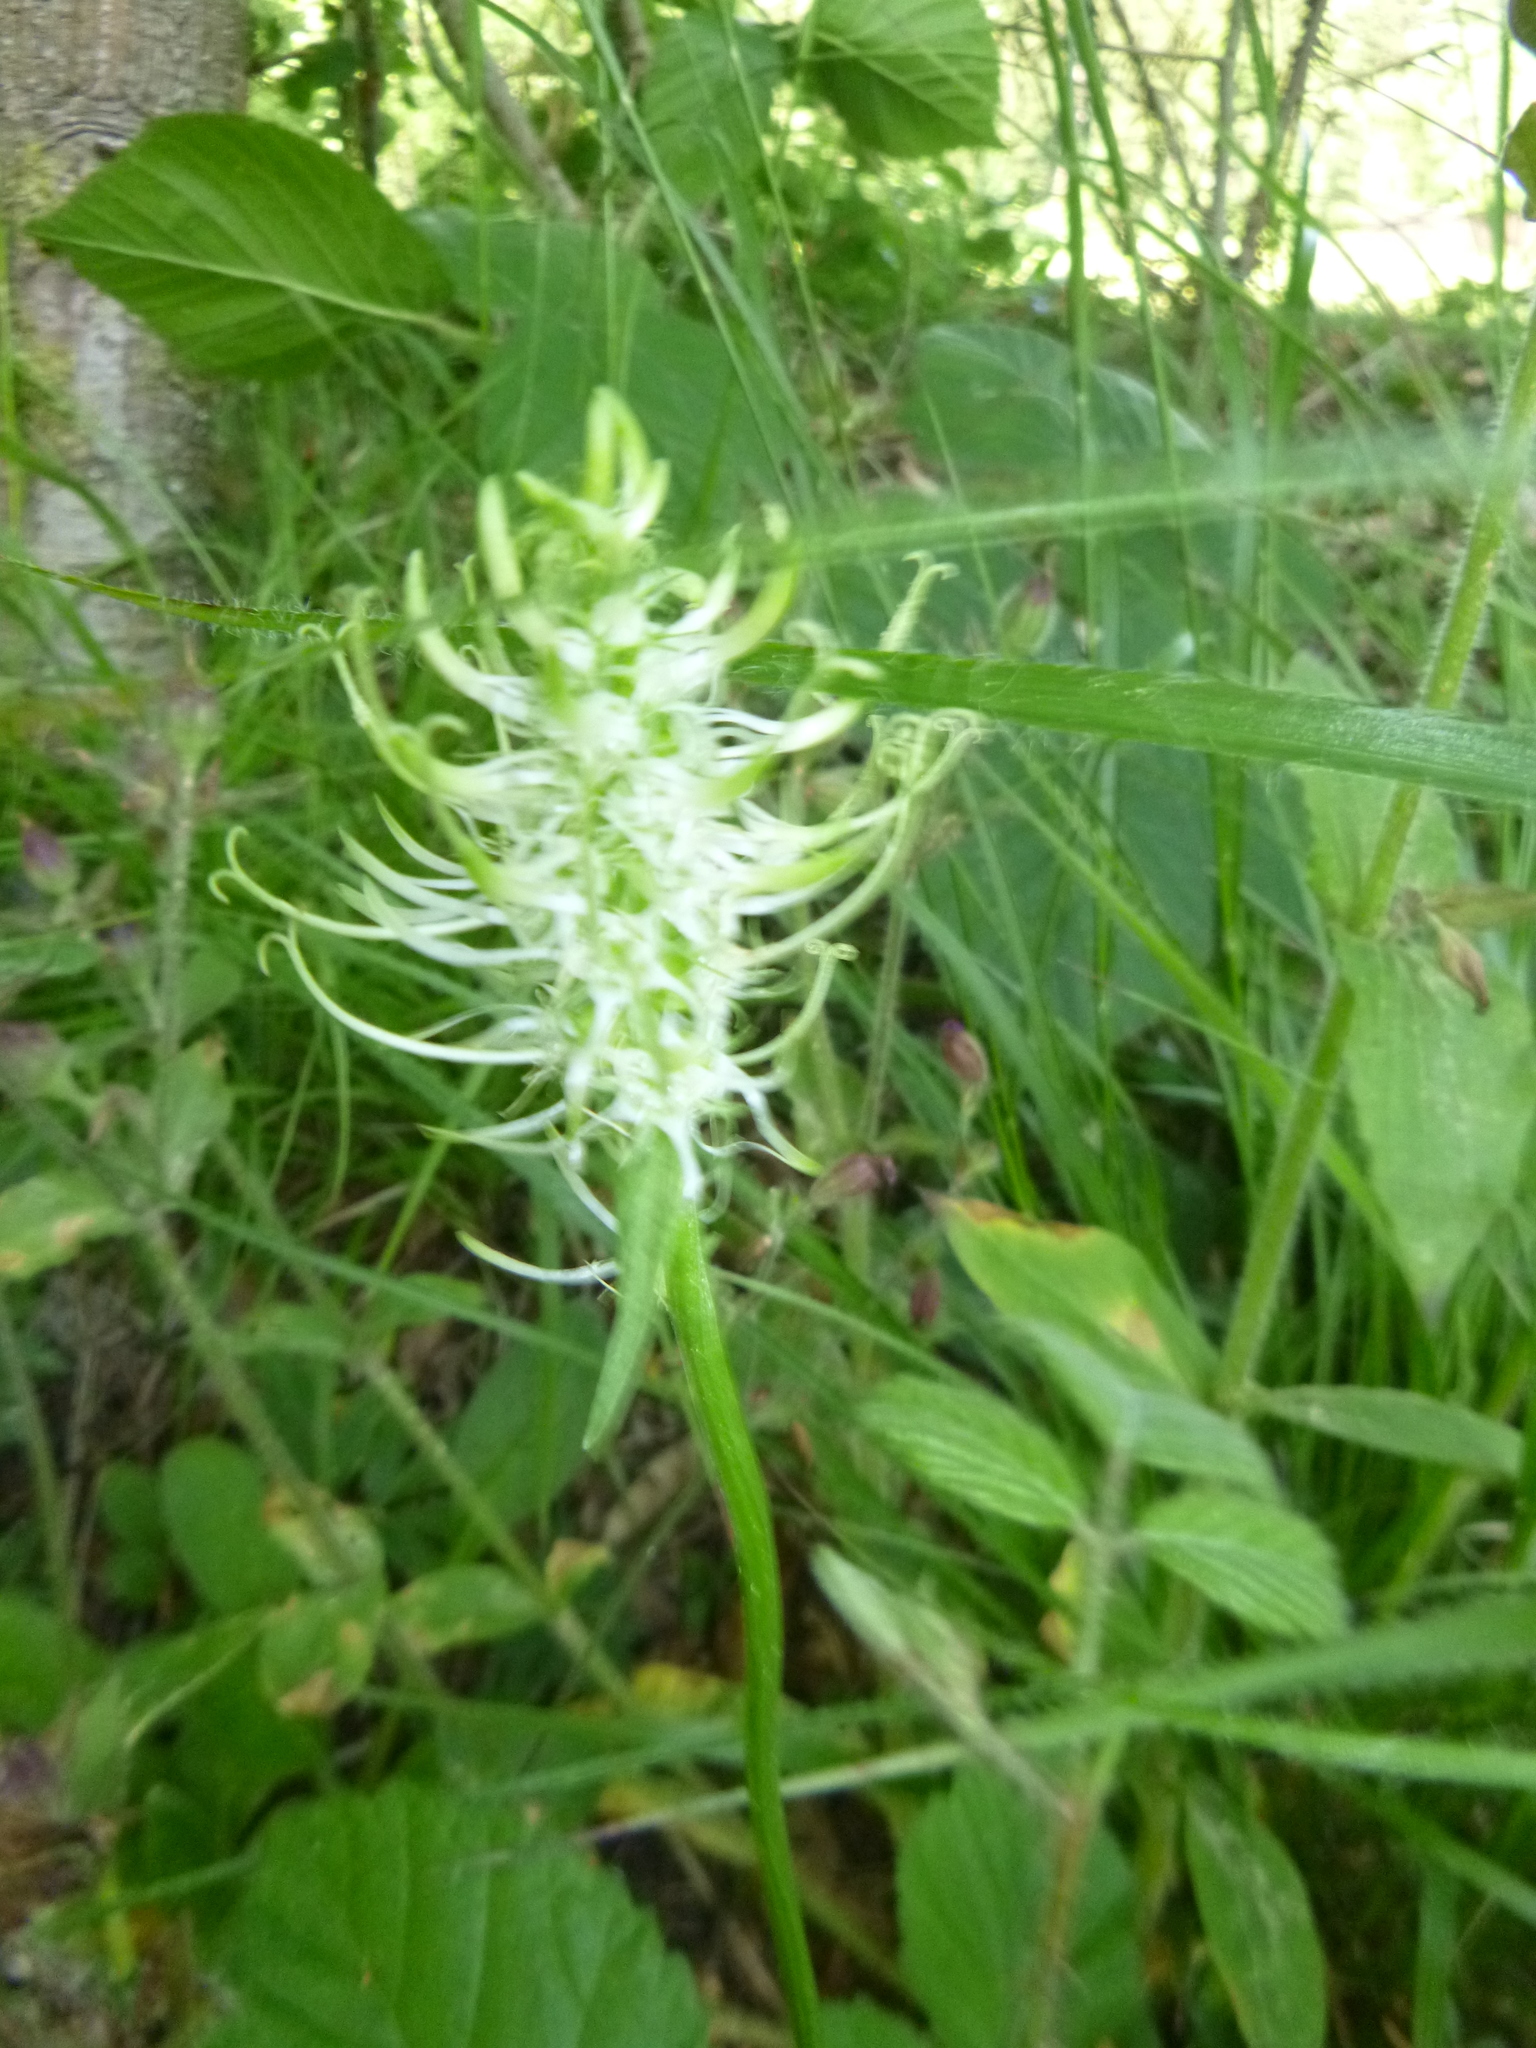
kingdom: Plantae
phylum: Tracheophyta
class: Magnoliopsida
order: Asterales
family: Campanulaceae
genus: Phyteuma
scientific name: Phyteuma spicatum
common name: Spiked rampion
